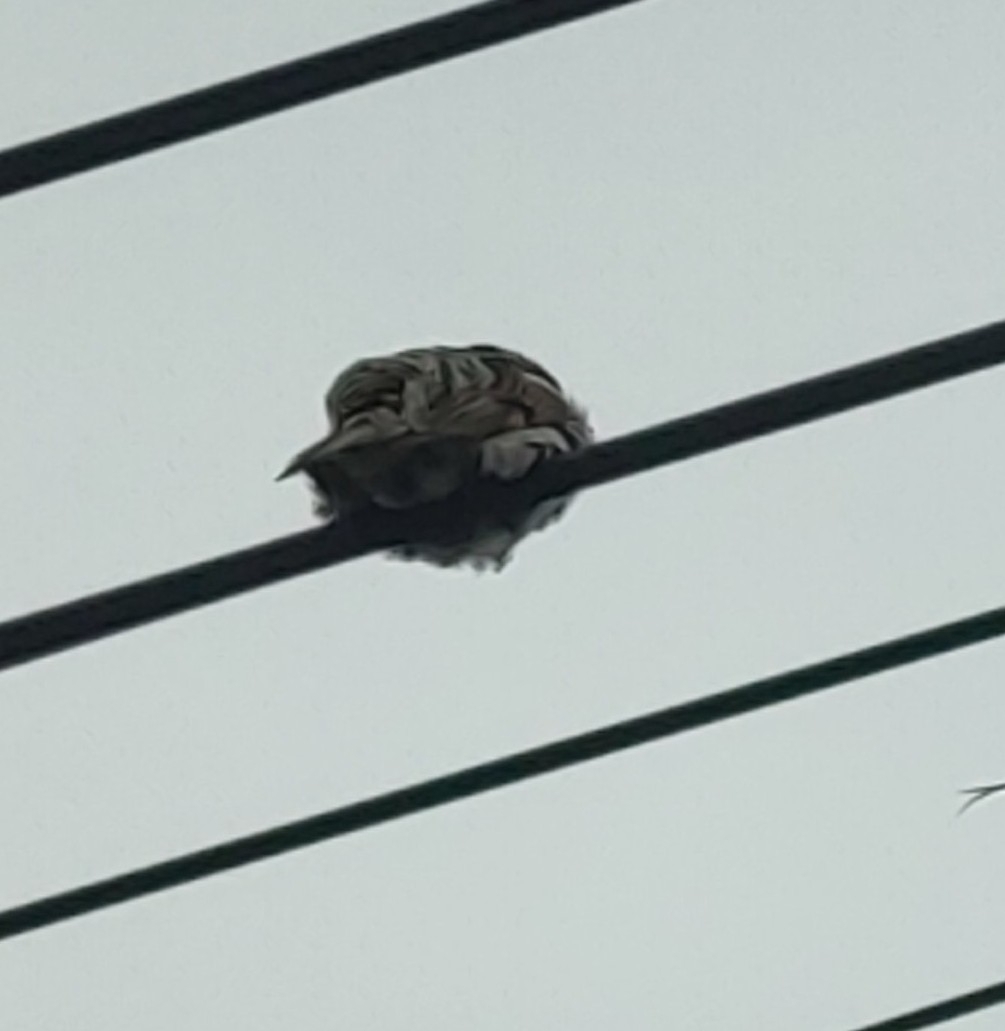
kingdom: Animalia
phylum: Chordata
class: Aves
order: Passeriformes
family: Passeridae
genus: Passer
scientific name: Passer domesticus
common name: House sparrow
